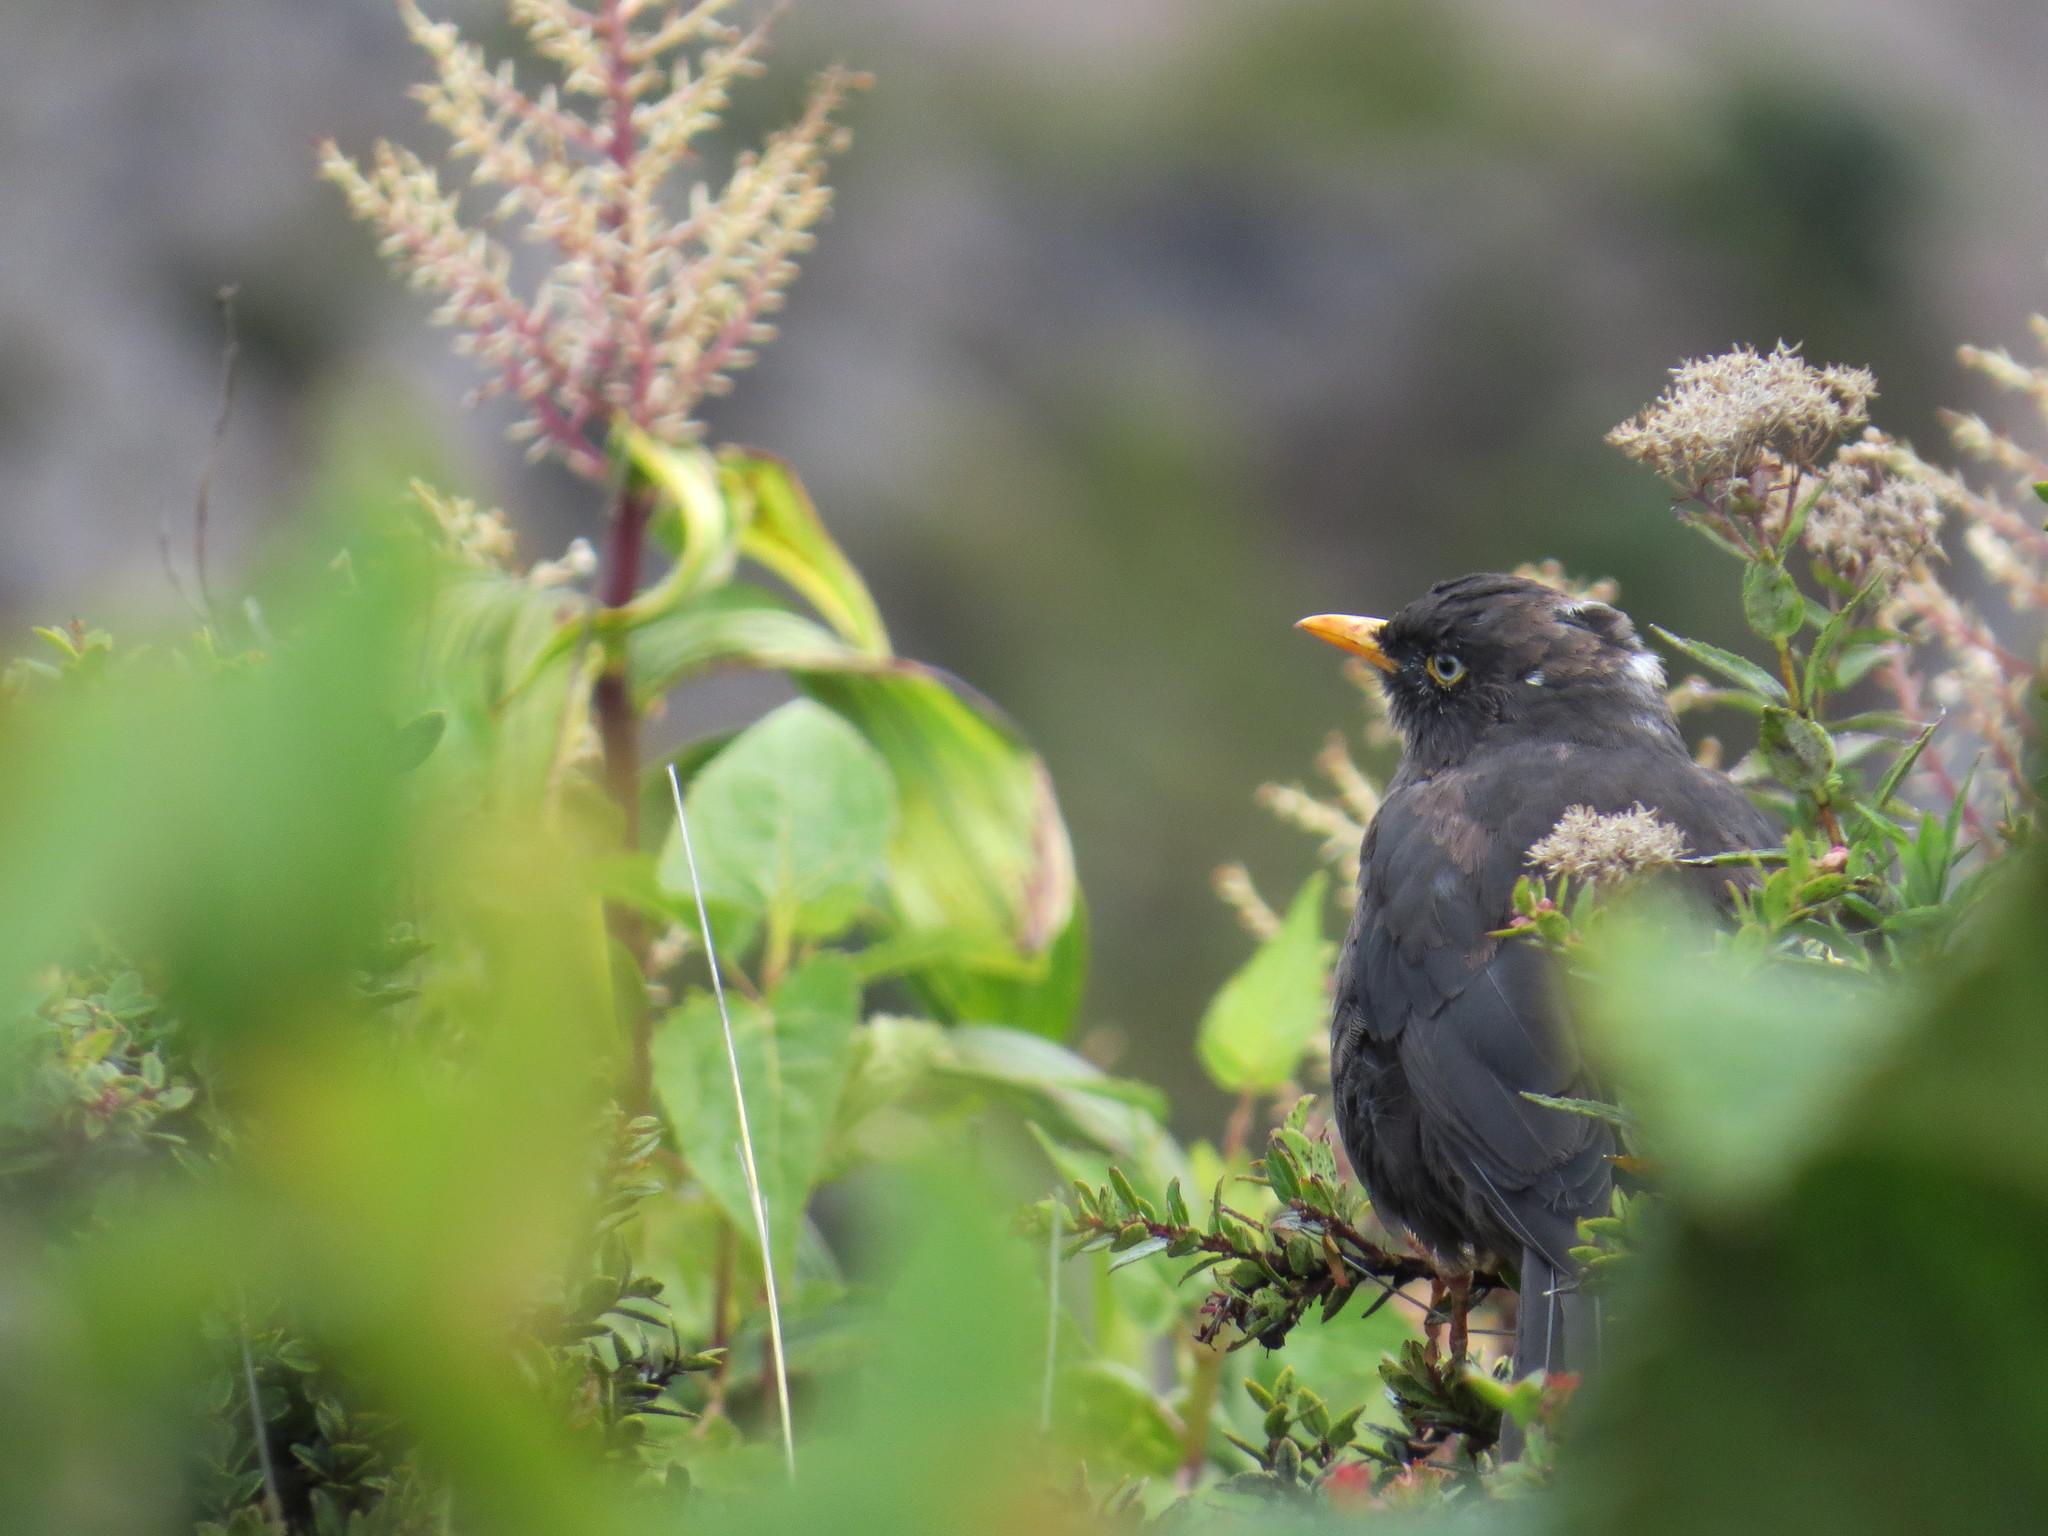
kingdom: Animalia
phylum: Chordata
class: Aves
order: Passeriformes
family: Turdidae
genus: Turdus
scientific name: Turdus nigrescens
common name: Sooty thrush
